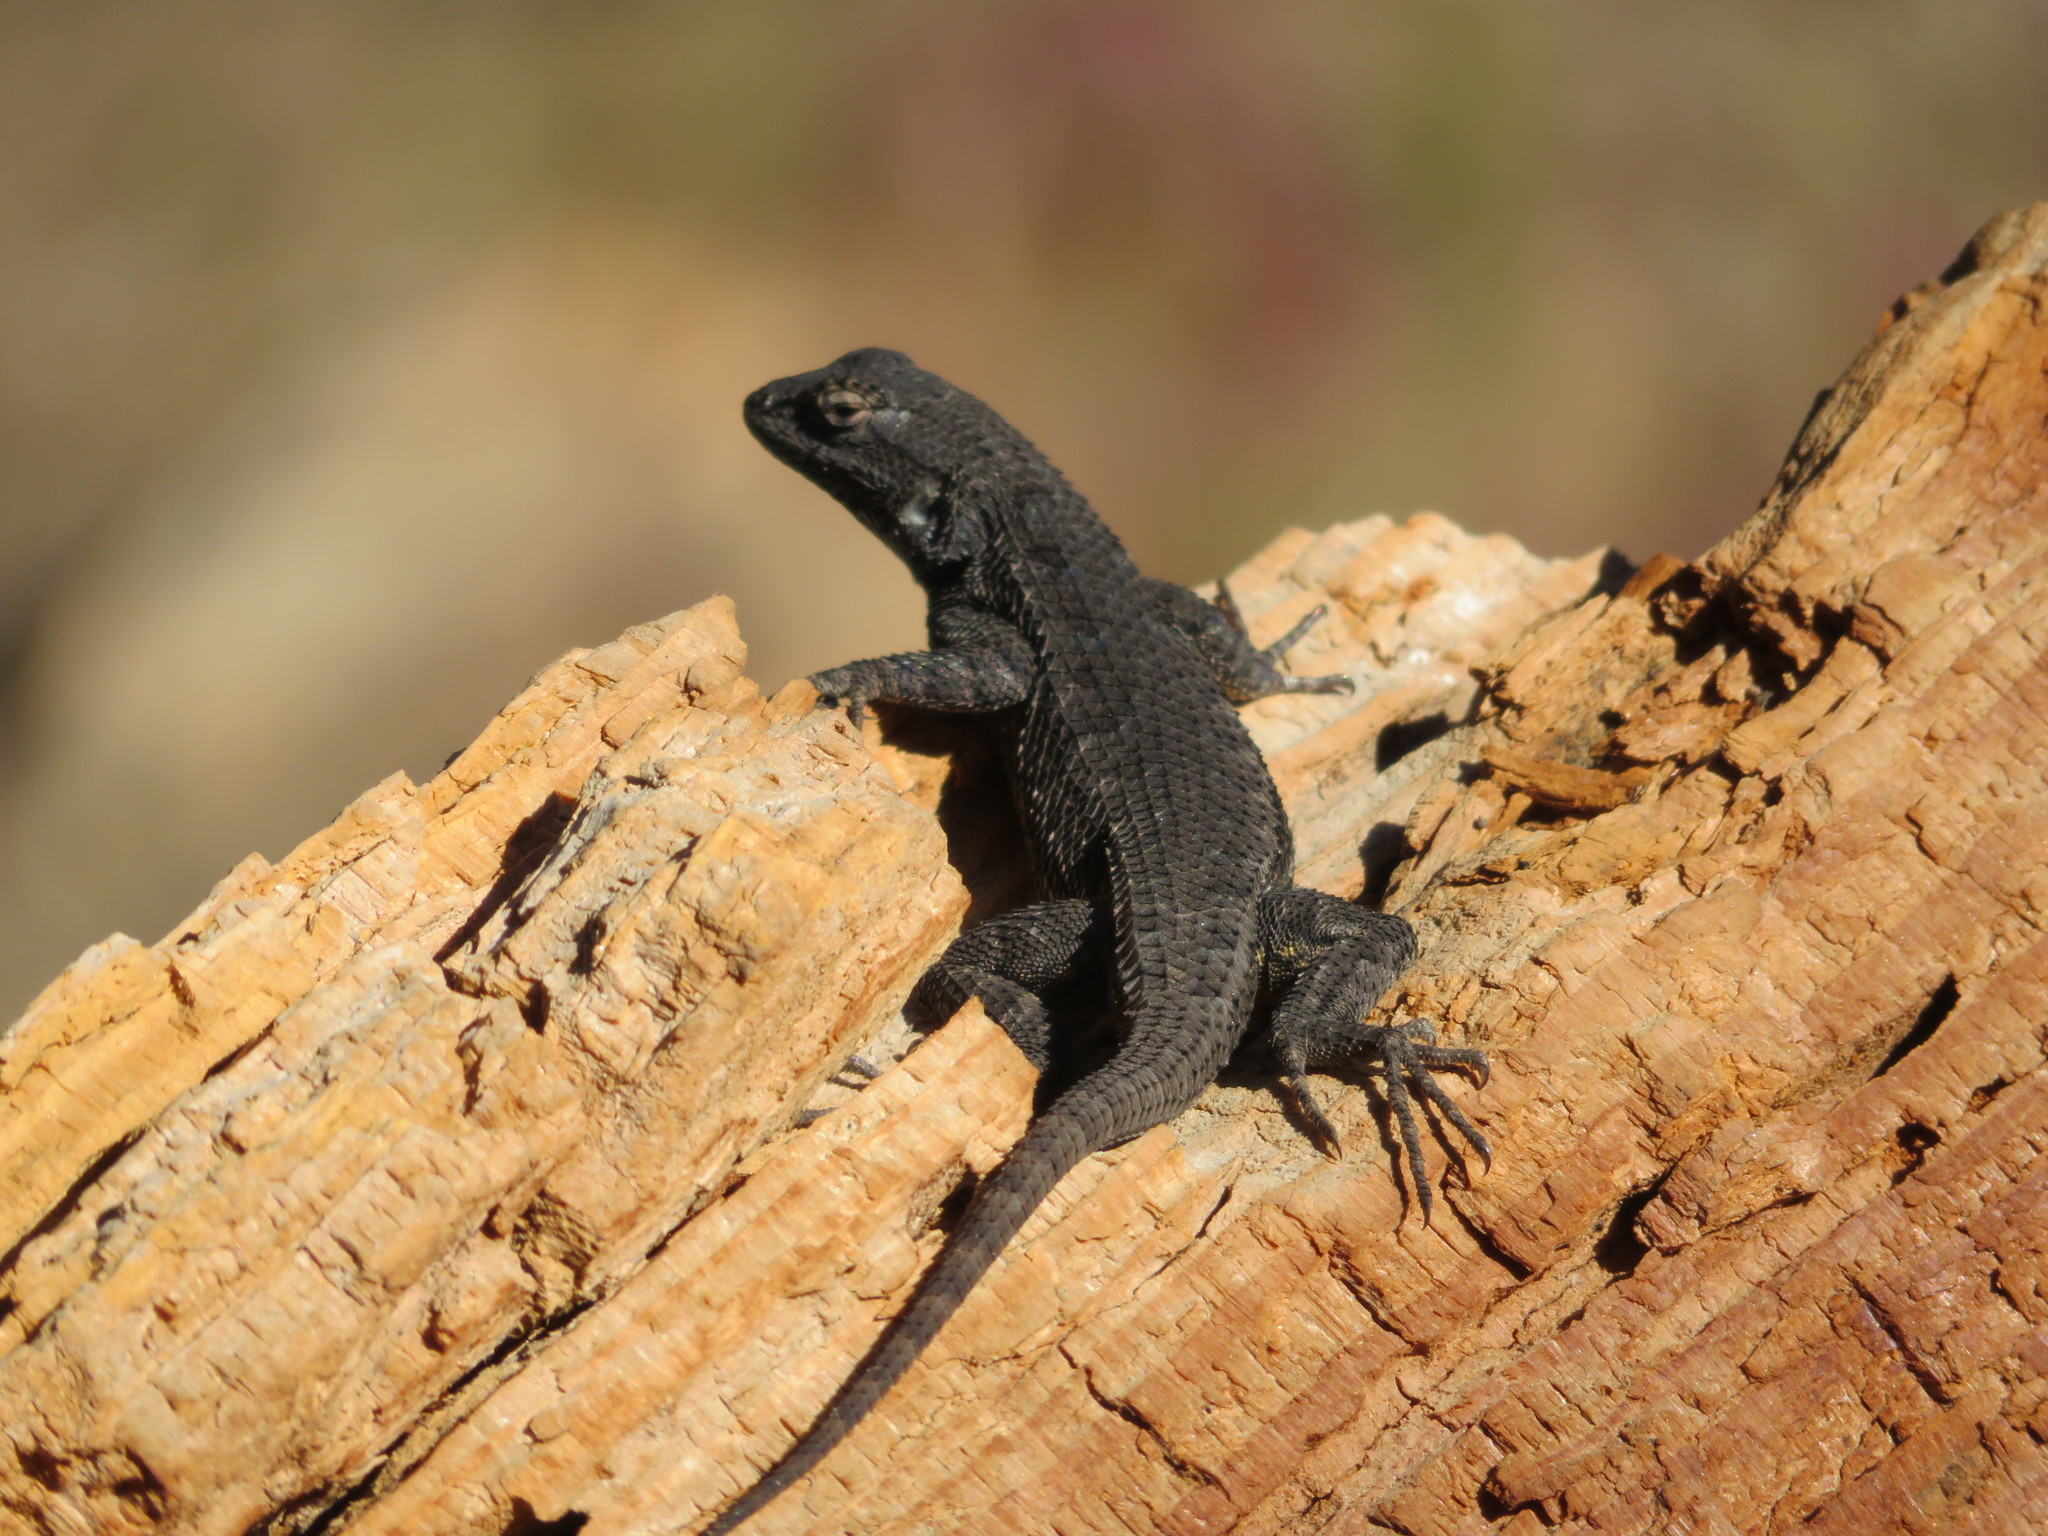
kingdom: Animalia
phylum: Chordata
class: Squamata
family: Phrynosomatidae
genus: Sceloporus
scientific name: Sceloporus occidentalis
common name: Western fence lizard
